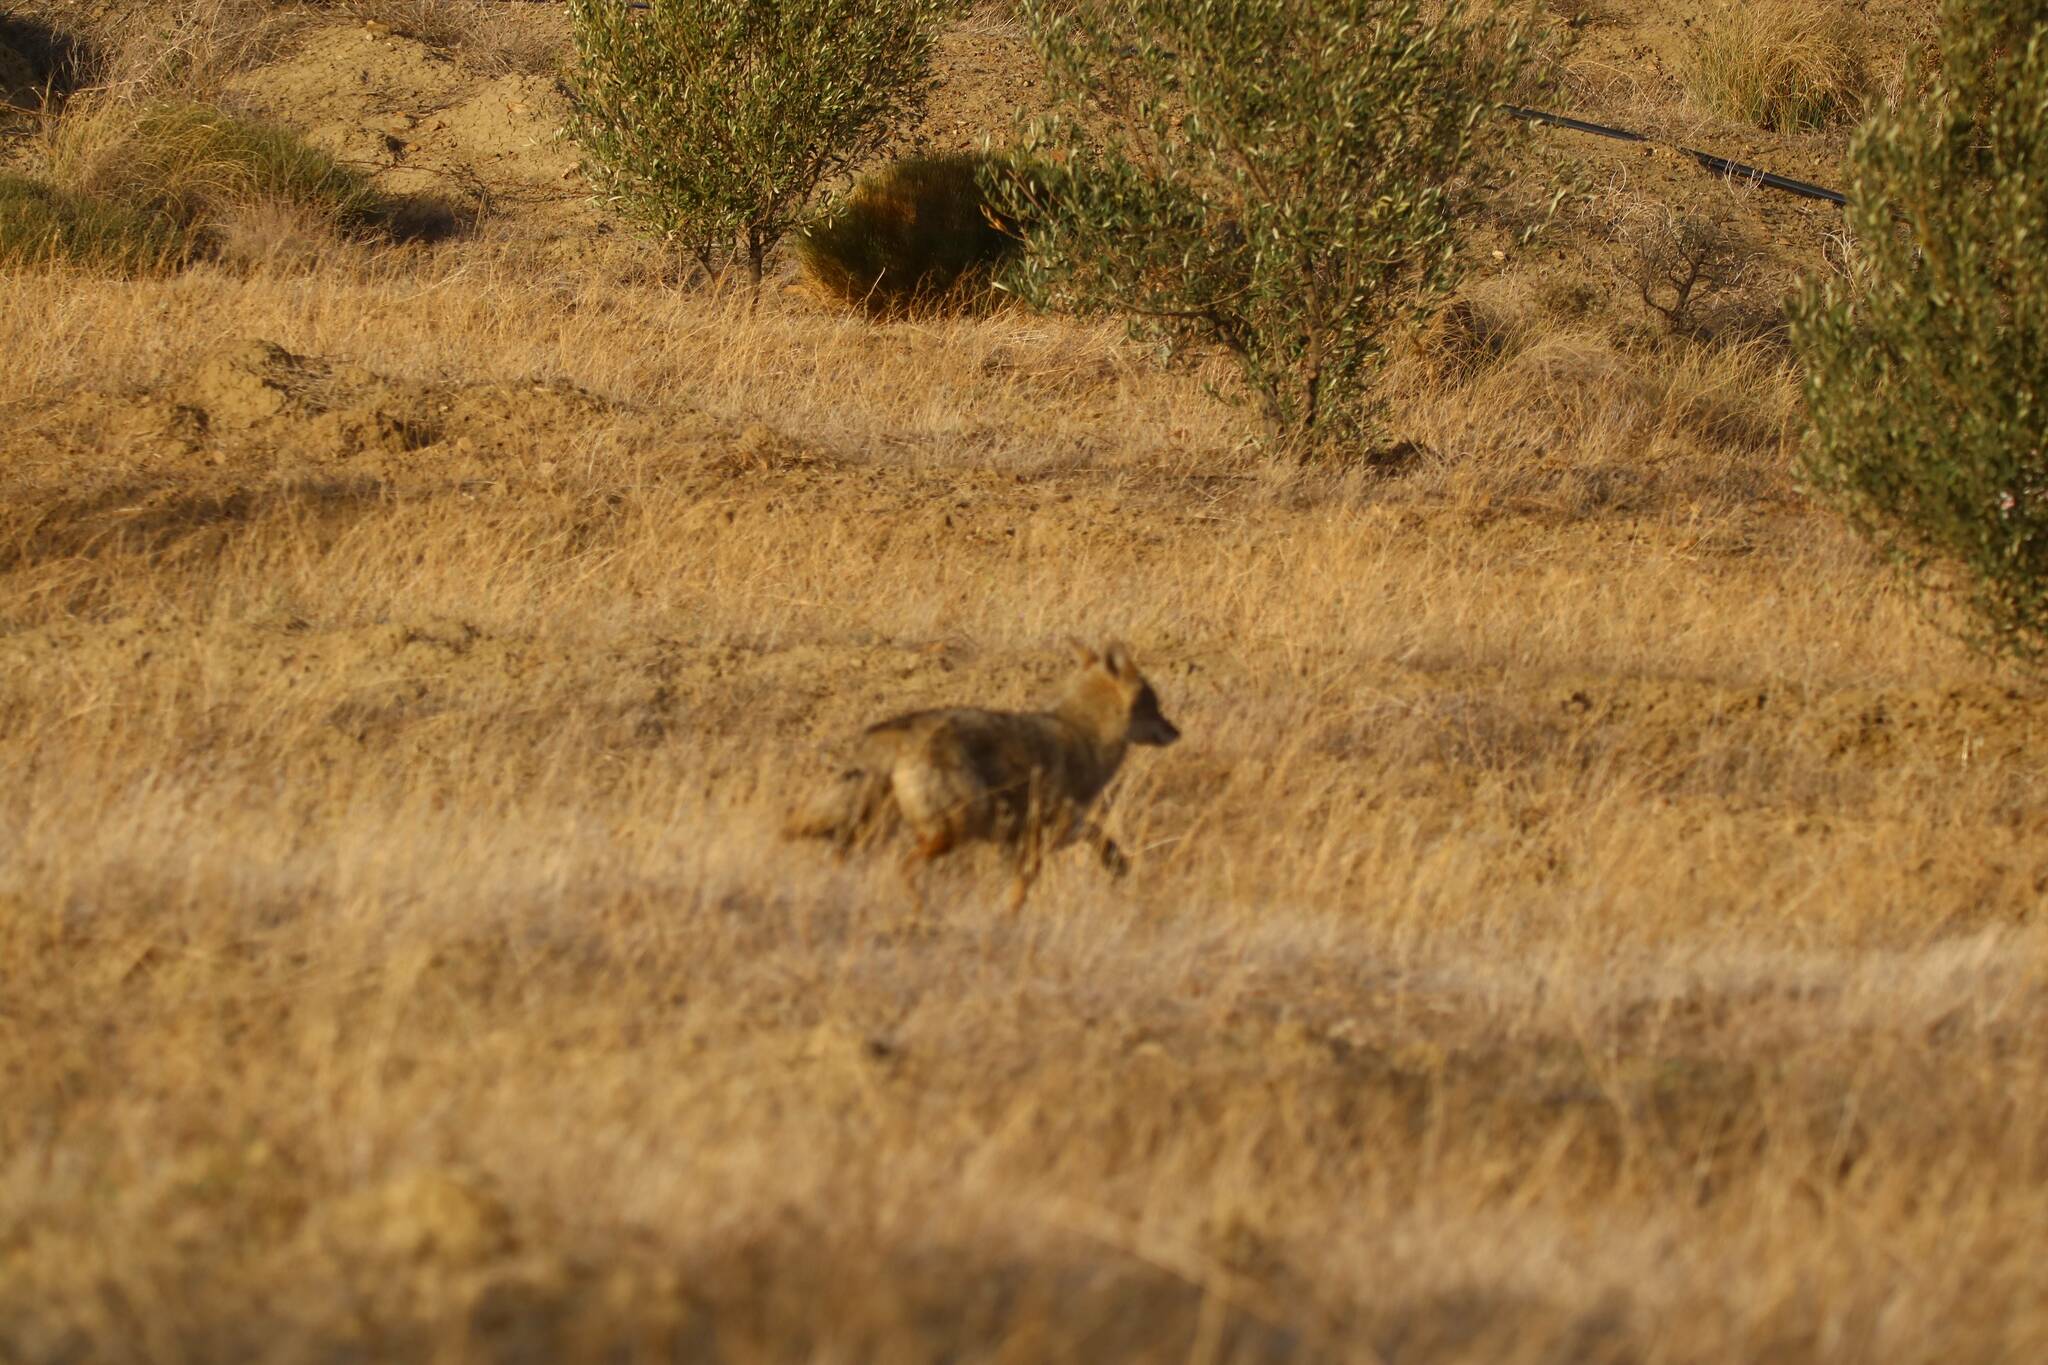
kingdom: Animalia
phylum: Chordata
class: Mammalia
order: Carnivora
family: Canidae
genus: Canis
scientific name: Canis lupaster
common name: African golden wolf
